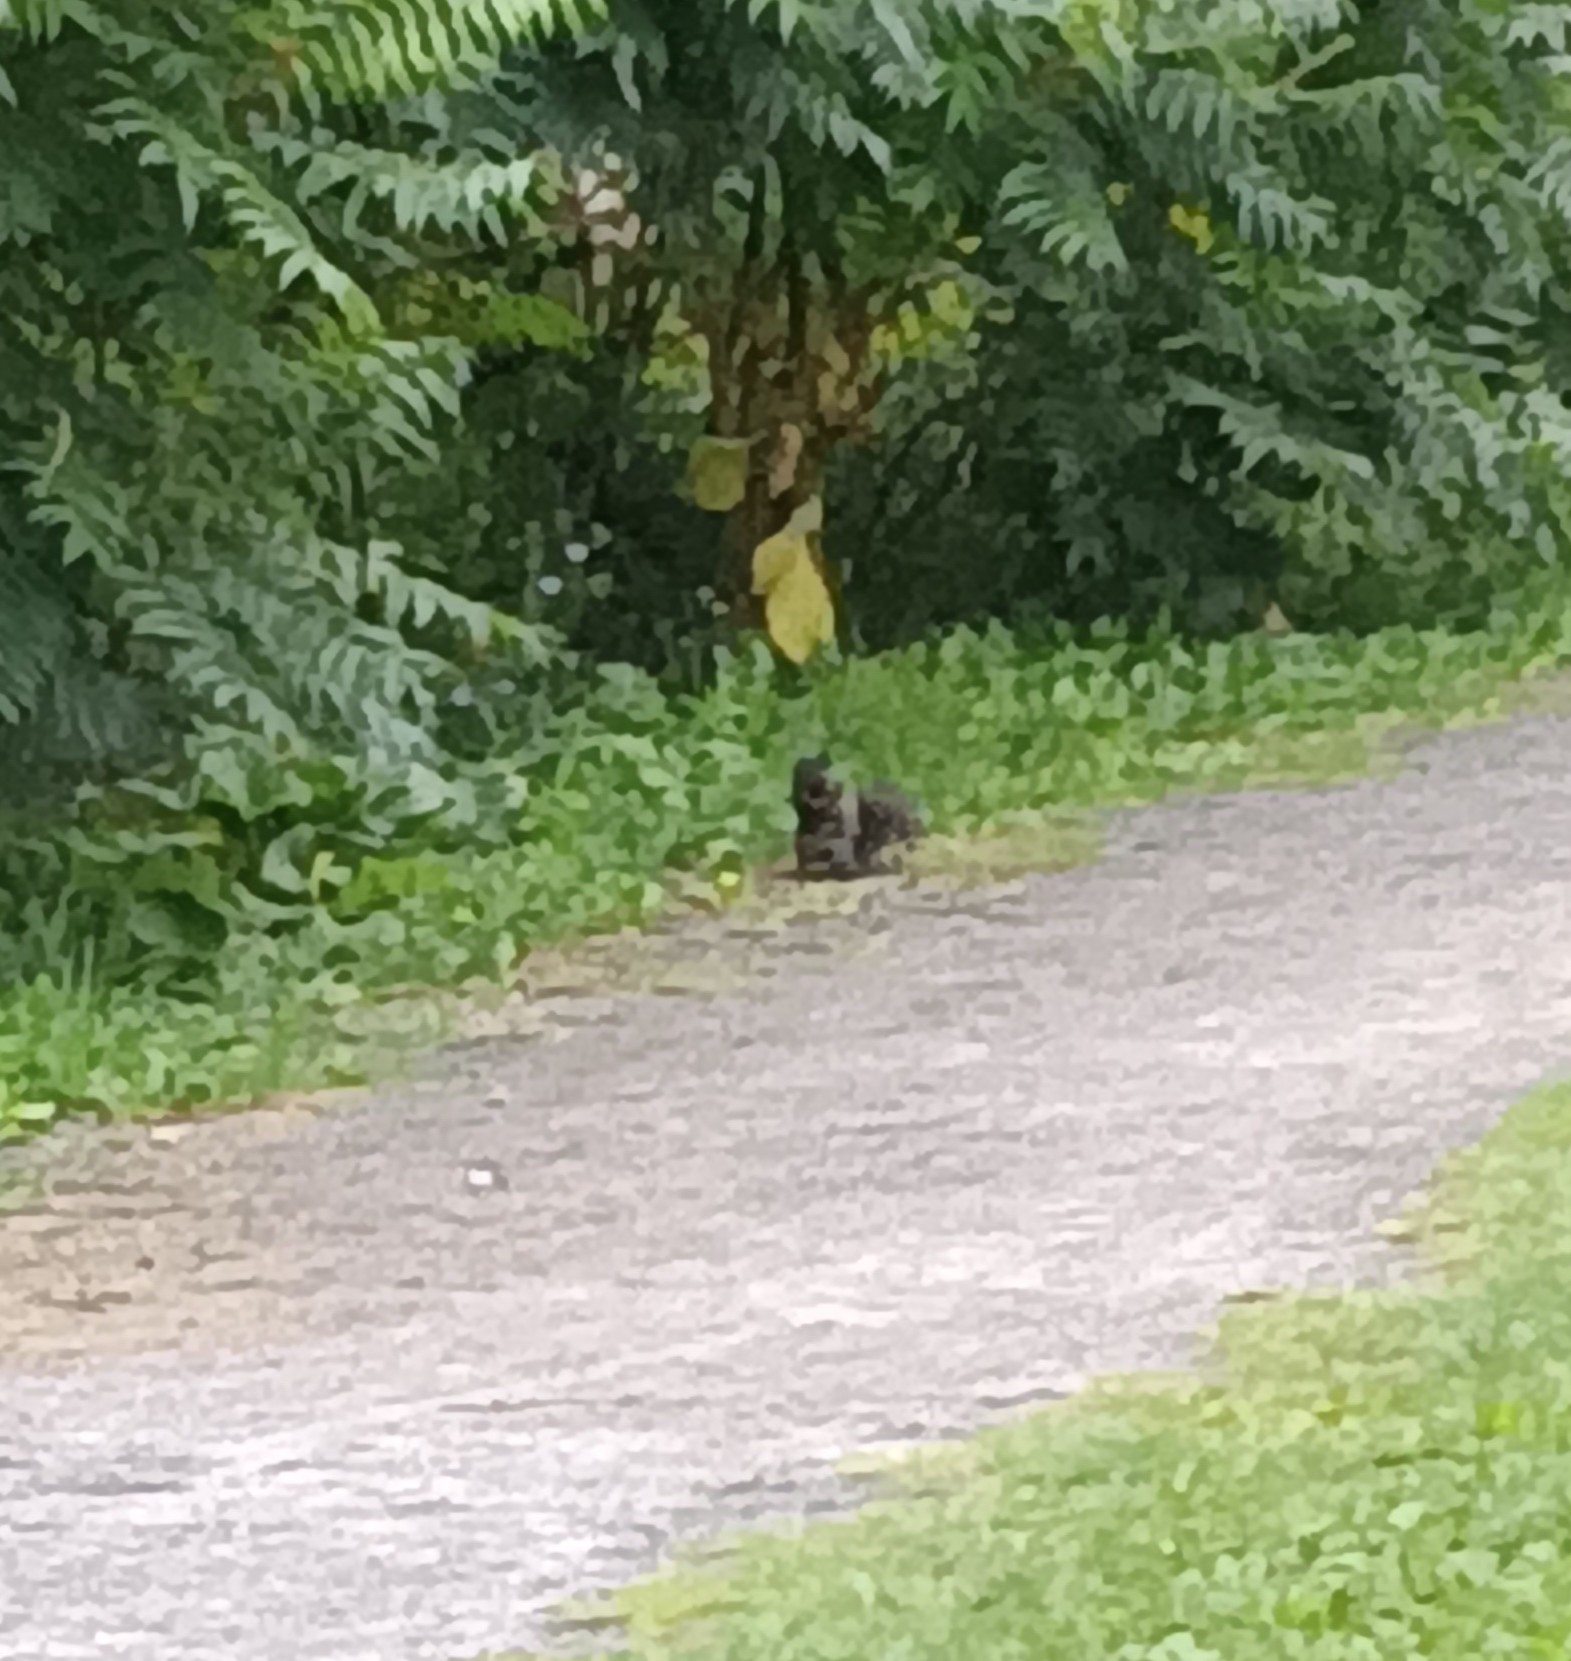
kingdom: Animalia
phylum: Chordata
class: Mammalia
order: Rodentia
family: Sciuridae
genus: Sciurus
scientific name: Sciurus carolinensis
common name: Eastern gray squirrel
